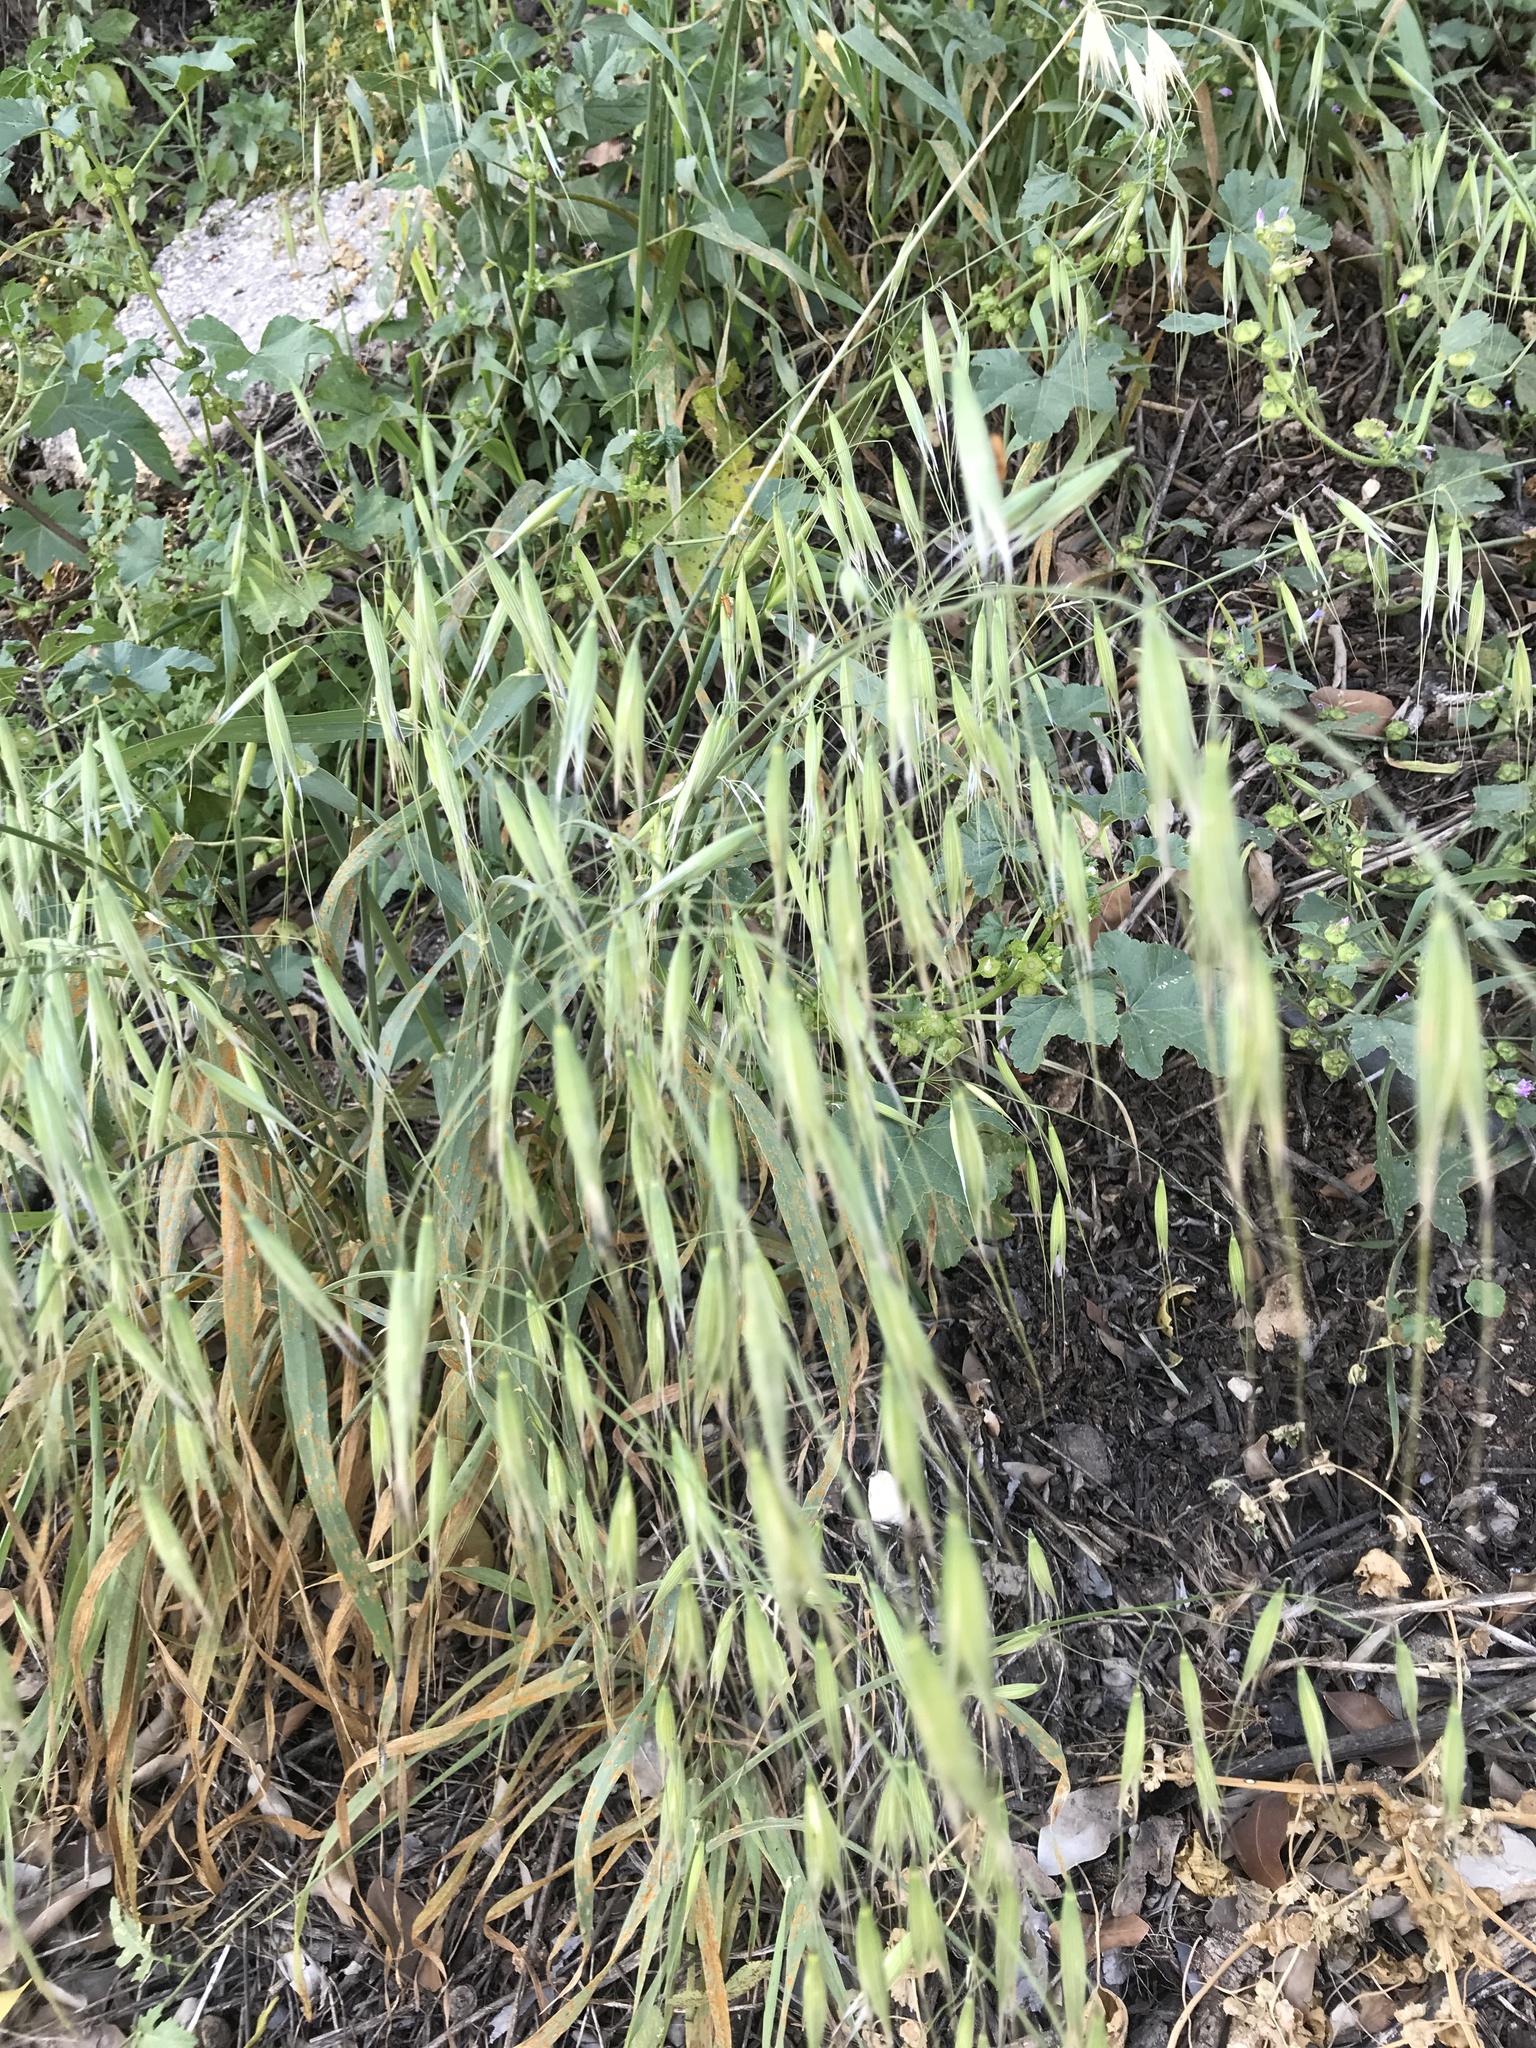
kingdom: Plantae
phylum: Tracheophyta
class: Liliopsida
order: Poales
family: Poaceae
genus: Avena
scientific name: Avena sterilis
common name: Animated oat
